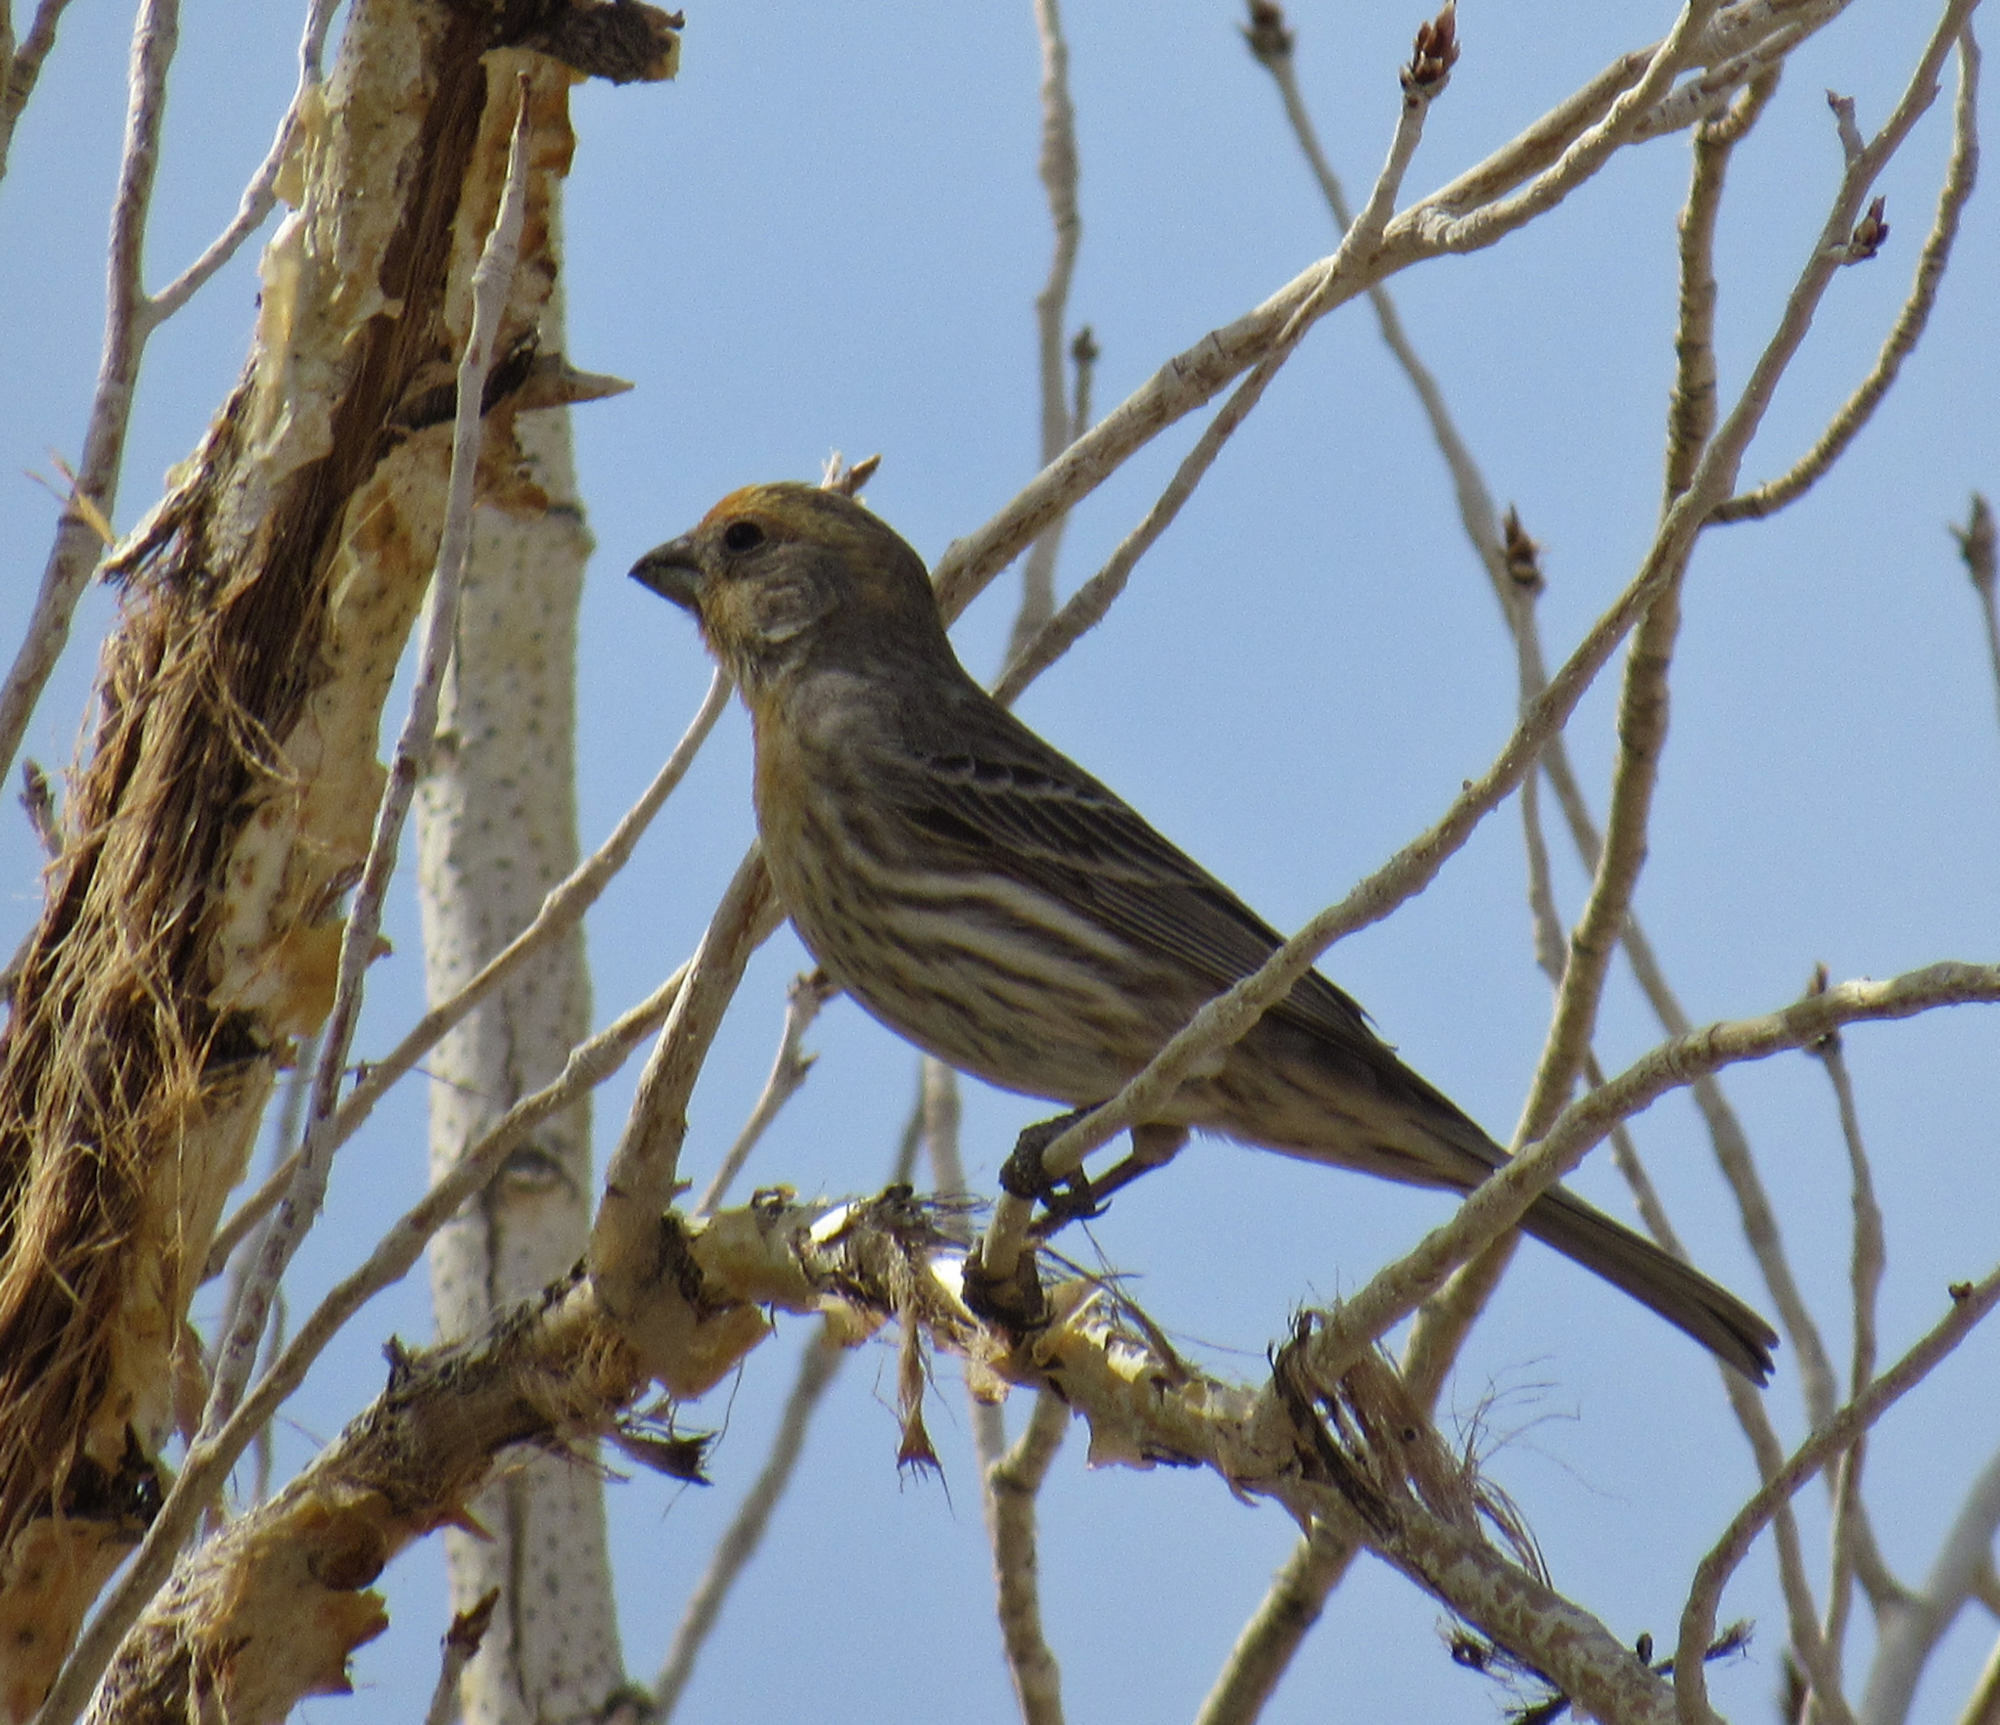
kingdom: Animalia
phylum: Chordata
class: Aves
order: Passeriformes
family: Fringillidae
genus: Haemorhous
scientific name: Haemorhous mexicanus
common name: House finch
